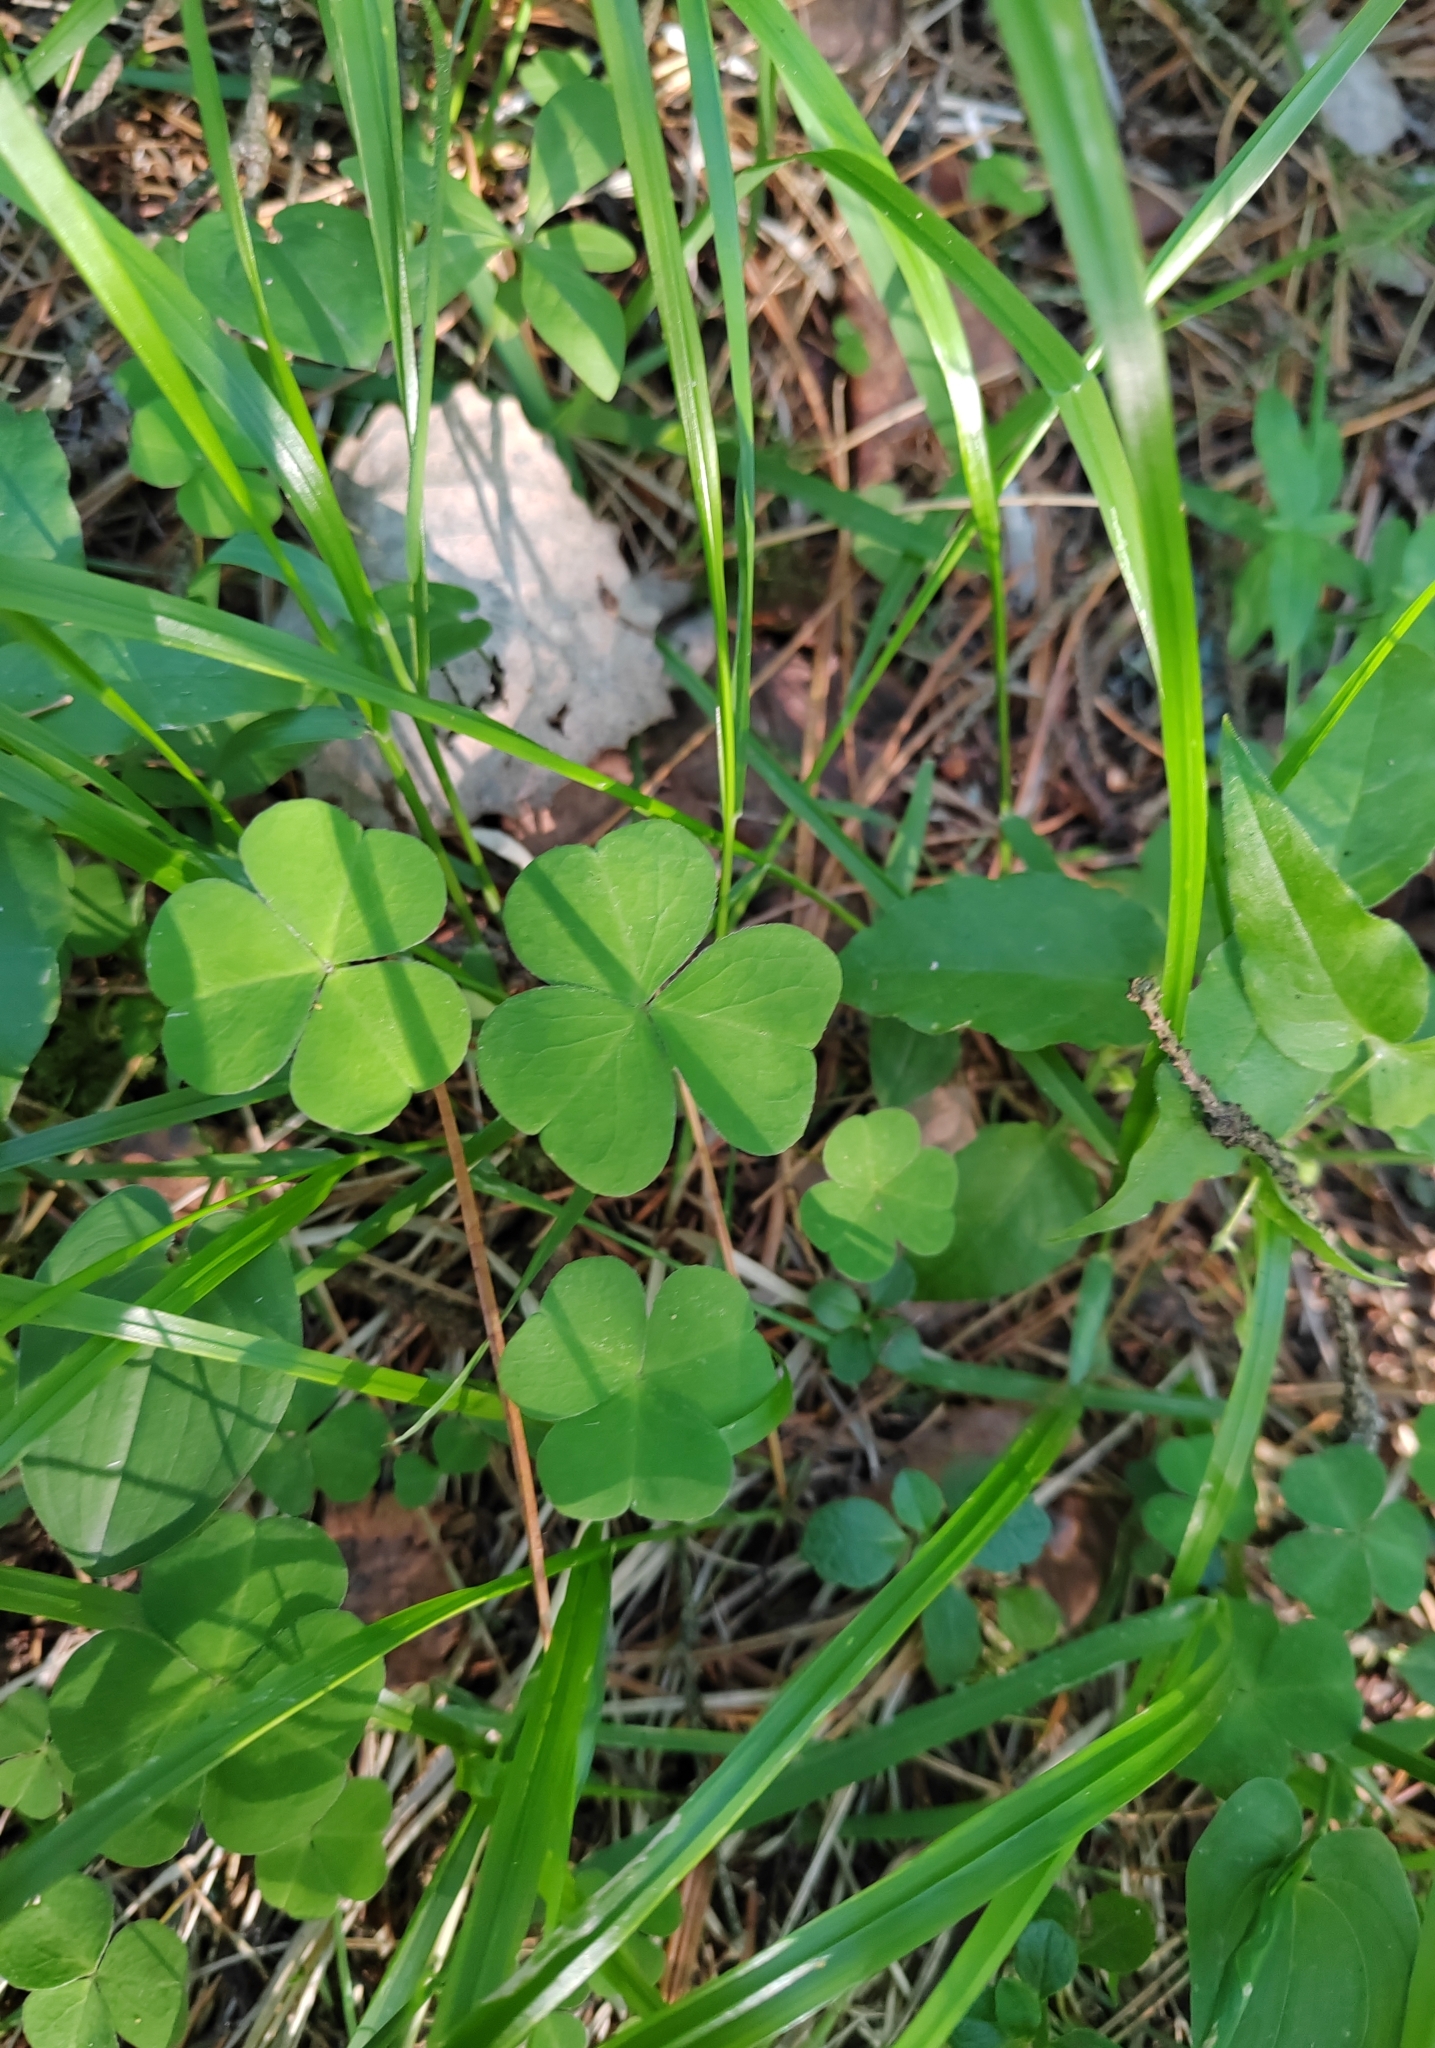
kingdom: Plantae
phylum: Tracheophyta
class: Magnoliopsida
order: Oxalidales
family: Oxalidaceae
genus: Oxalis
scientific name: Oxalis acetosella
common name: Wood-sorrel
